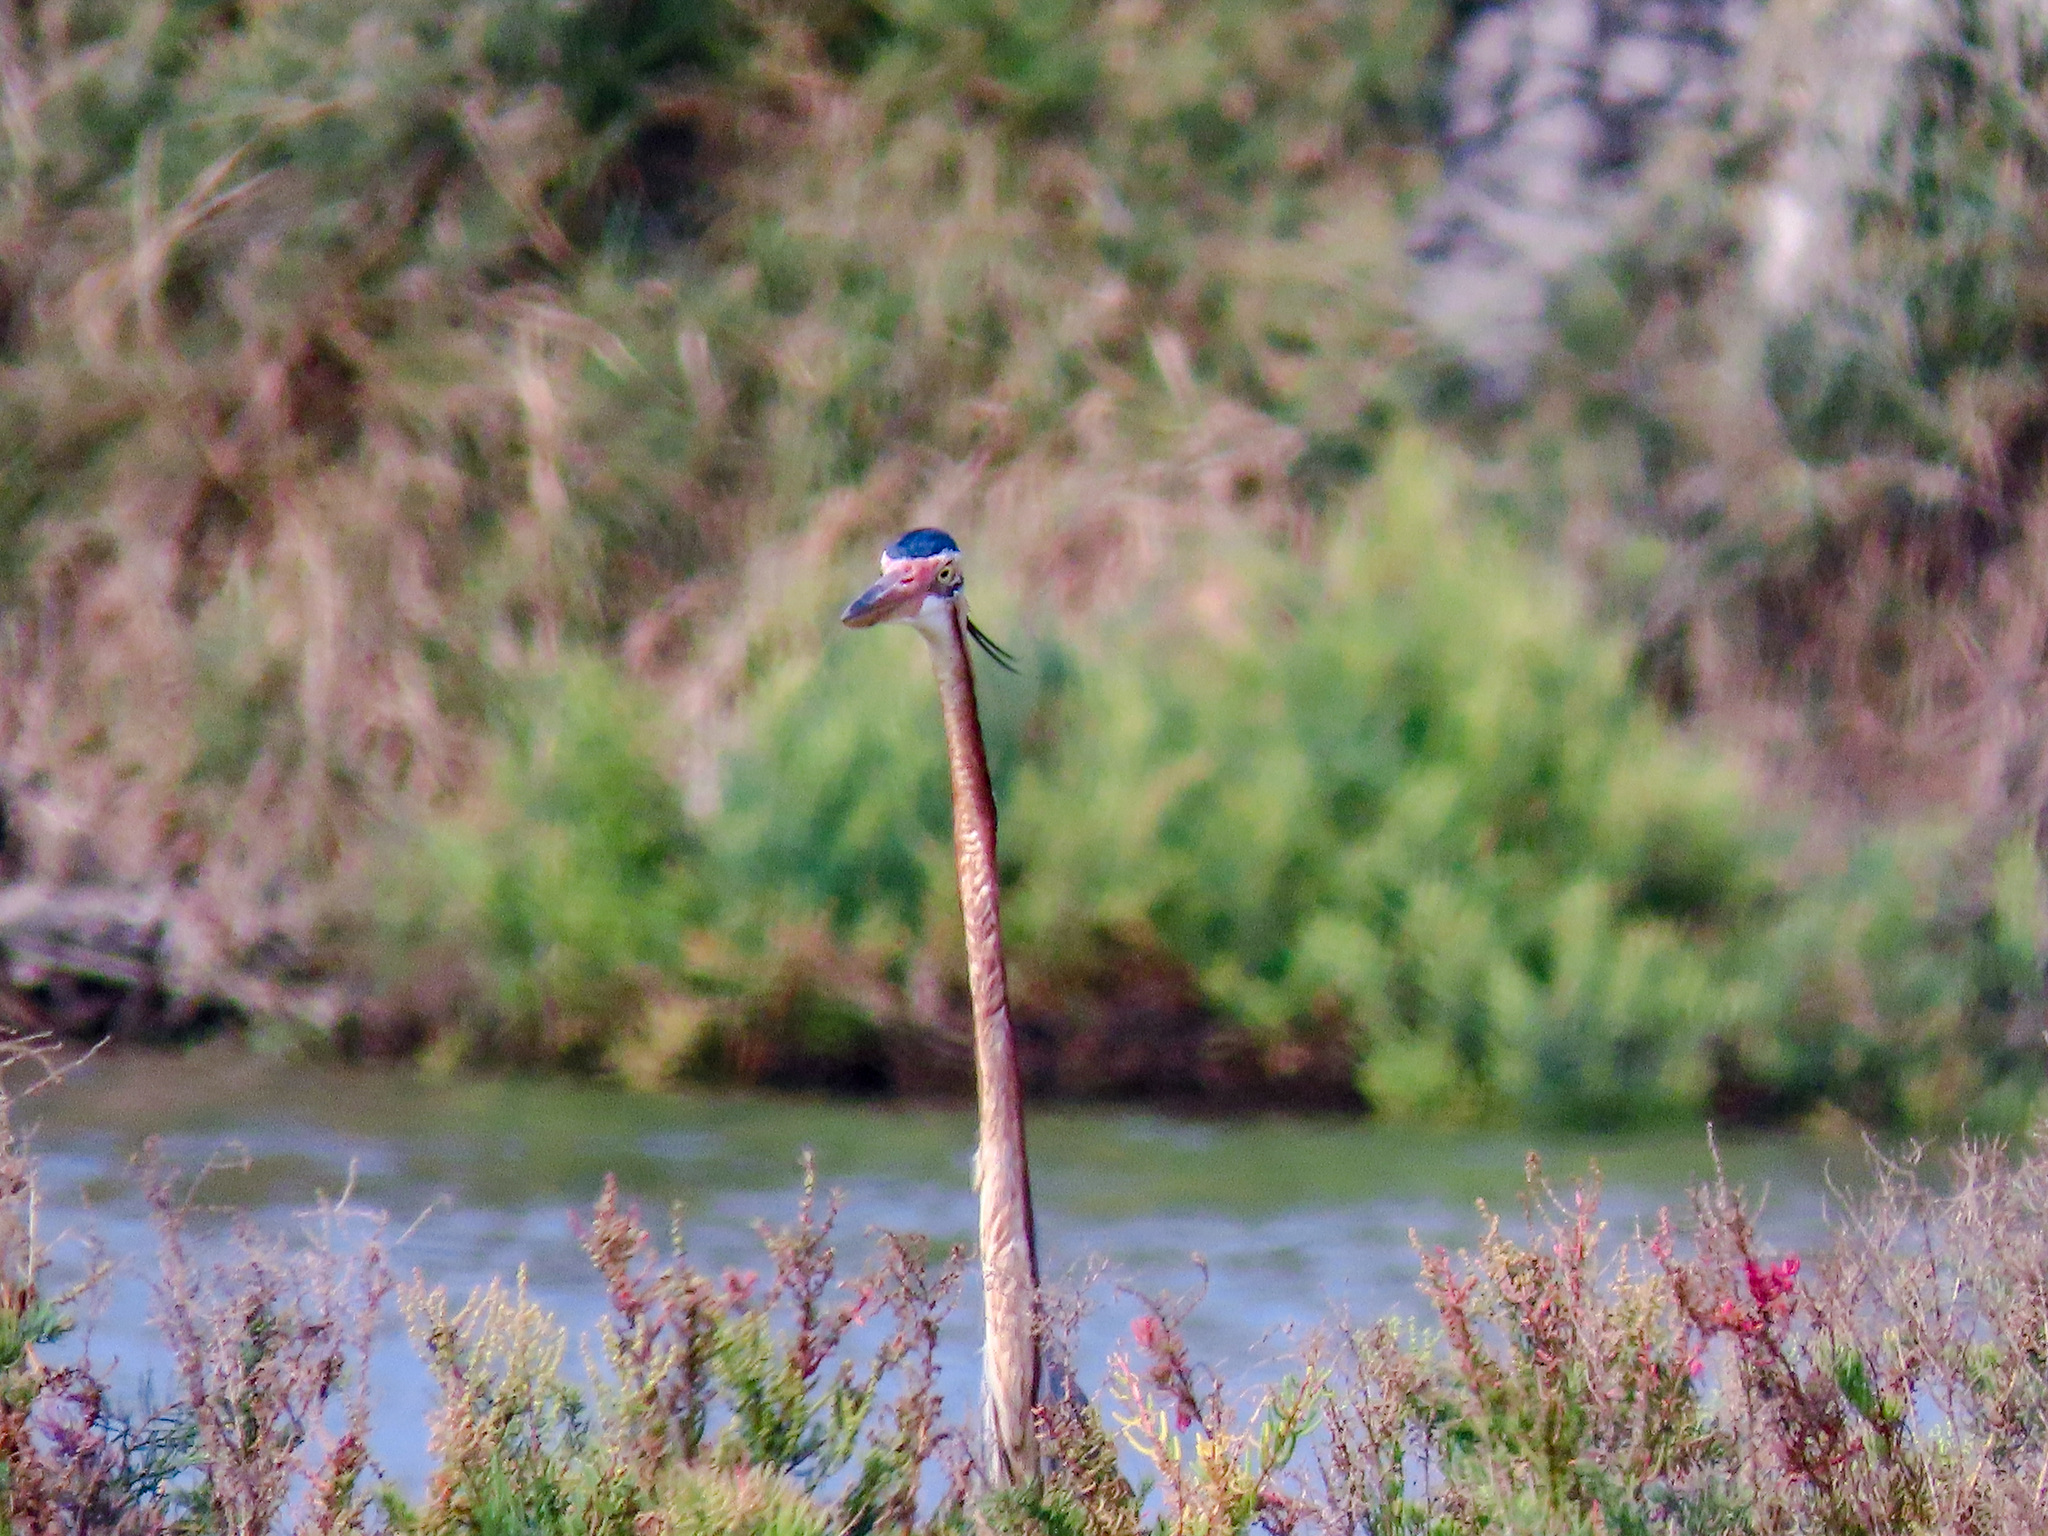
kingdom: Animalia
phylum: Chordata
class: Aves
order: Pelecaniformes
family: Ardeidae
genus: Ardea
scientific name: Ardea purpurea
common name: Purple heron
